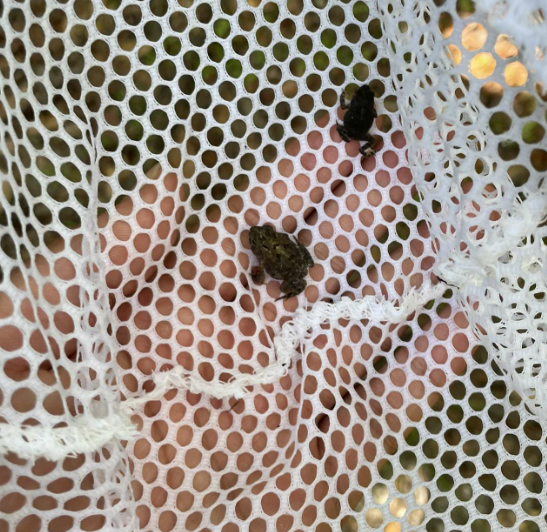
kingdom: Animalia
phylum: Chordata
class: Amphibia
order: Anura
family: Bufonidae
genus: Anaxyrus
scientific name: Anaxyrus terrestris
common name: Southern toad
